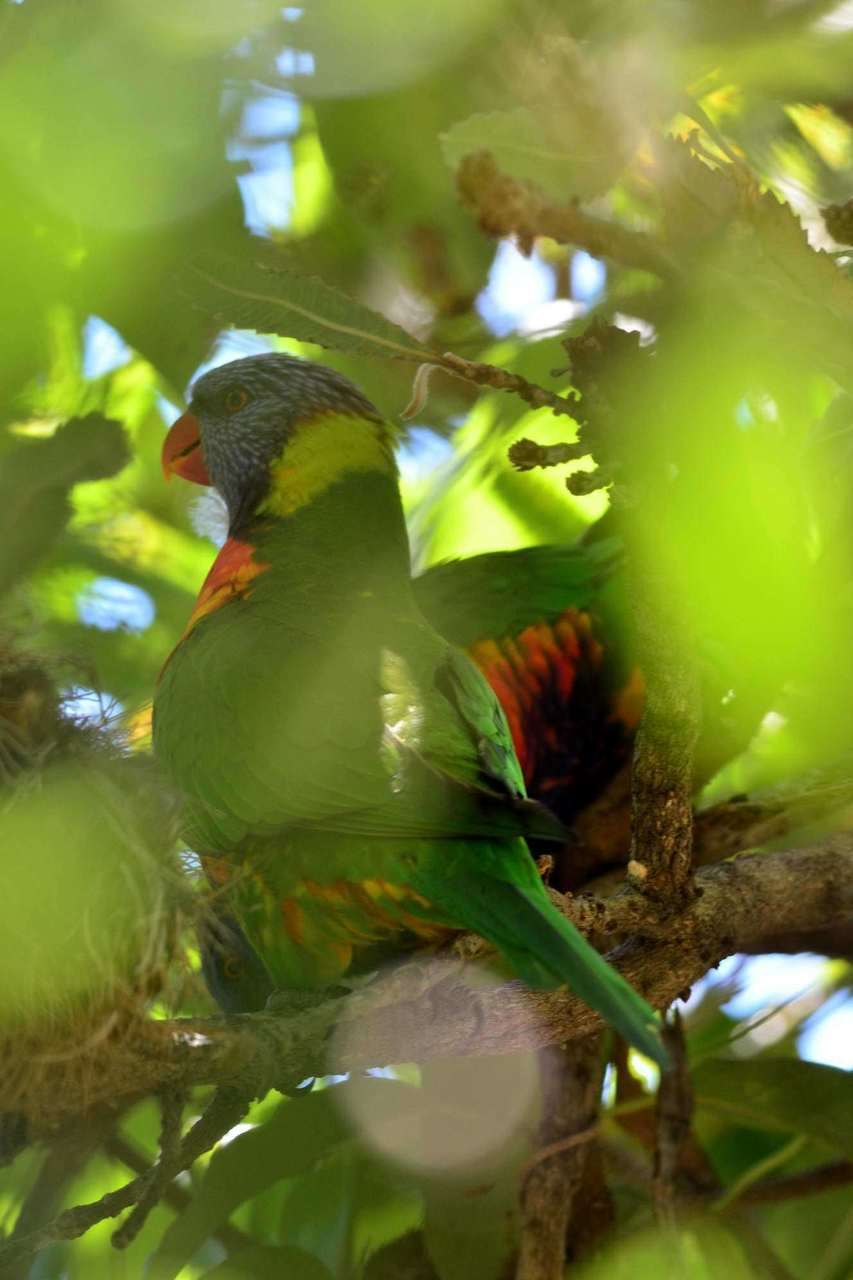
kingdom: Animalia
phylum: Chordata
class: Aves
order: Psittaciformes
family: Psittacidae
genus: Trichoglossus
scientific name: Trichoglossus haematodus
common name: Coconut lorikeet
